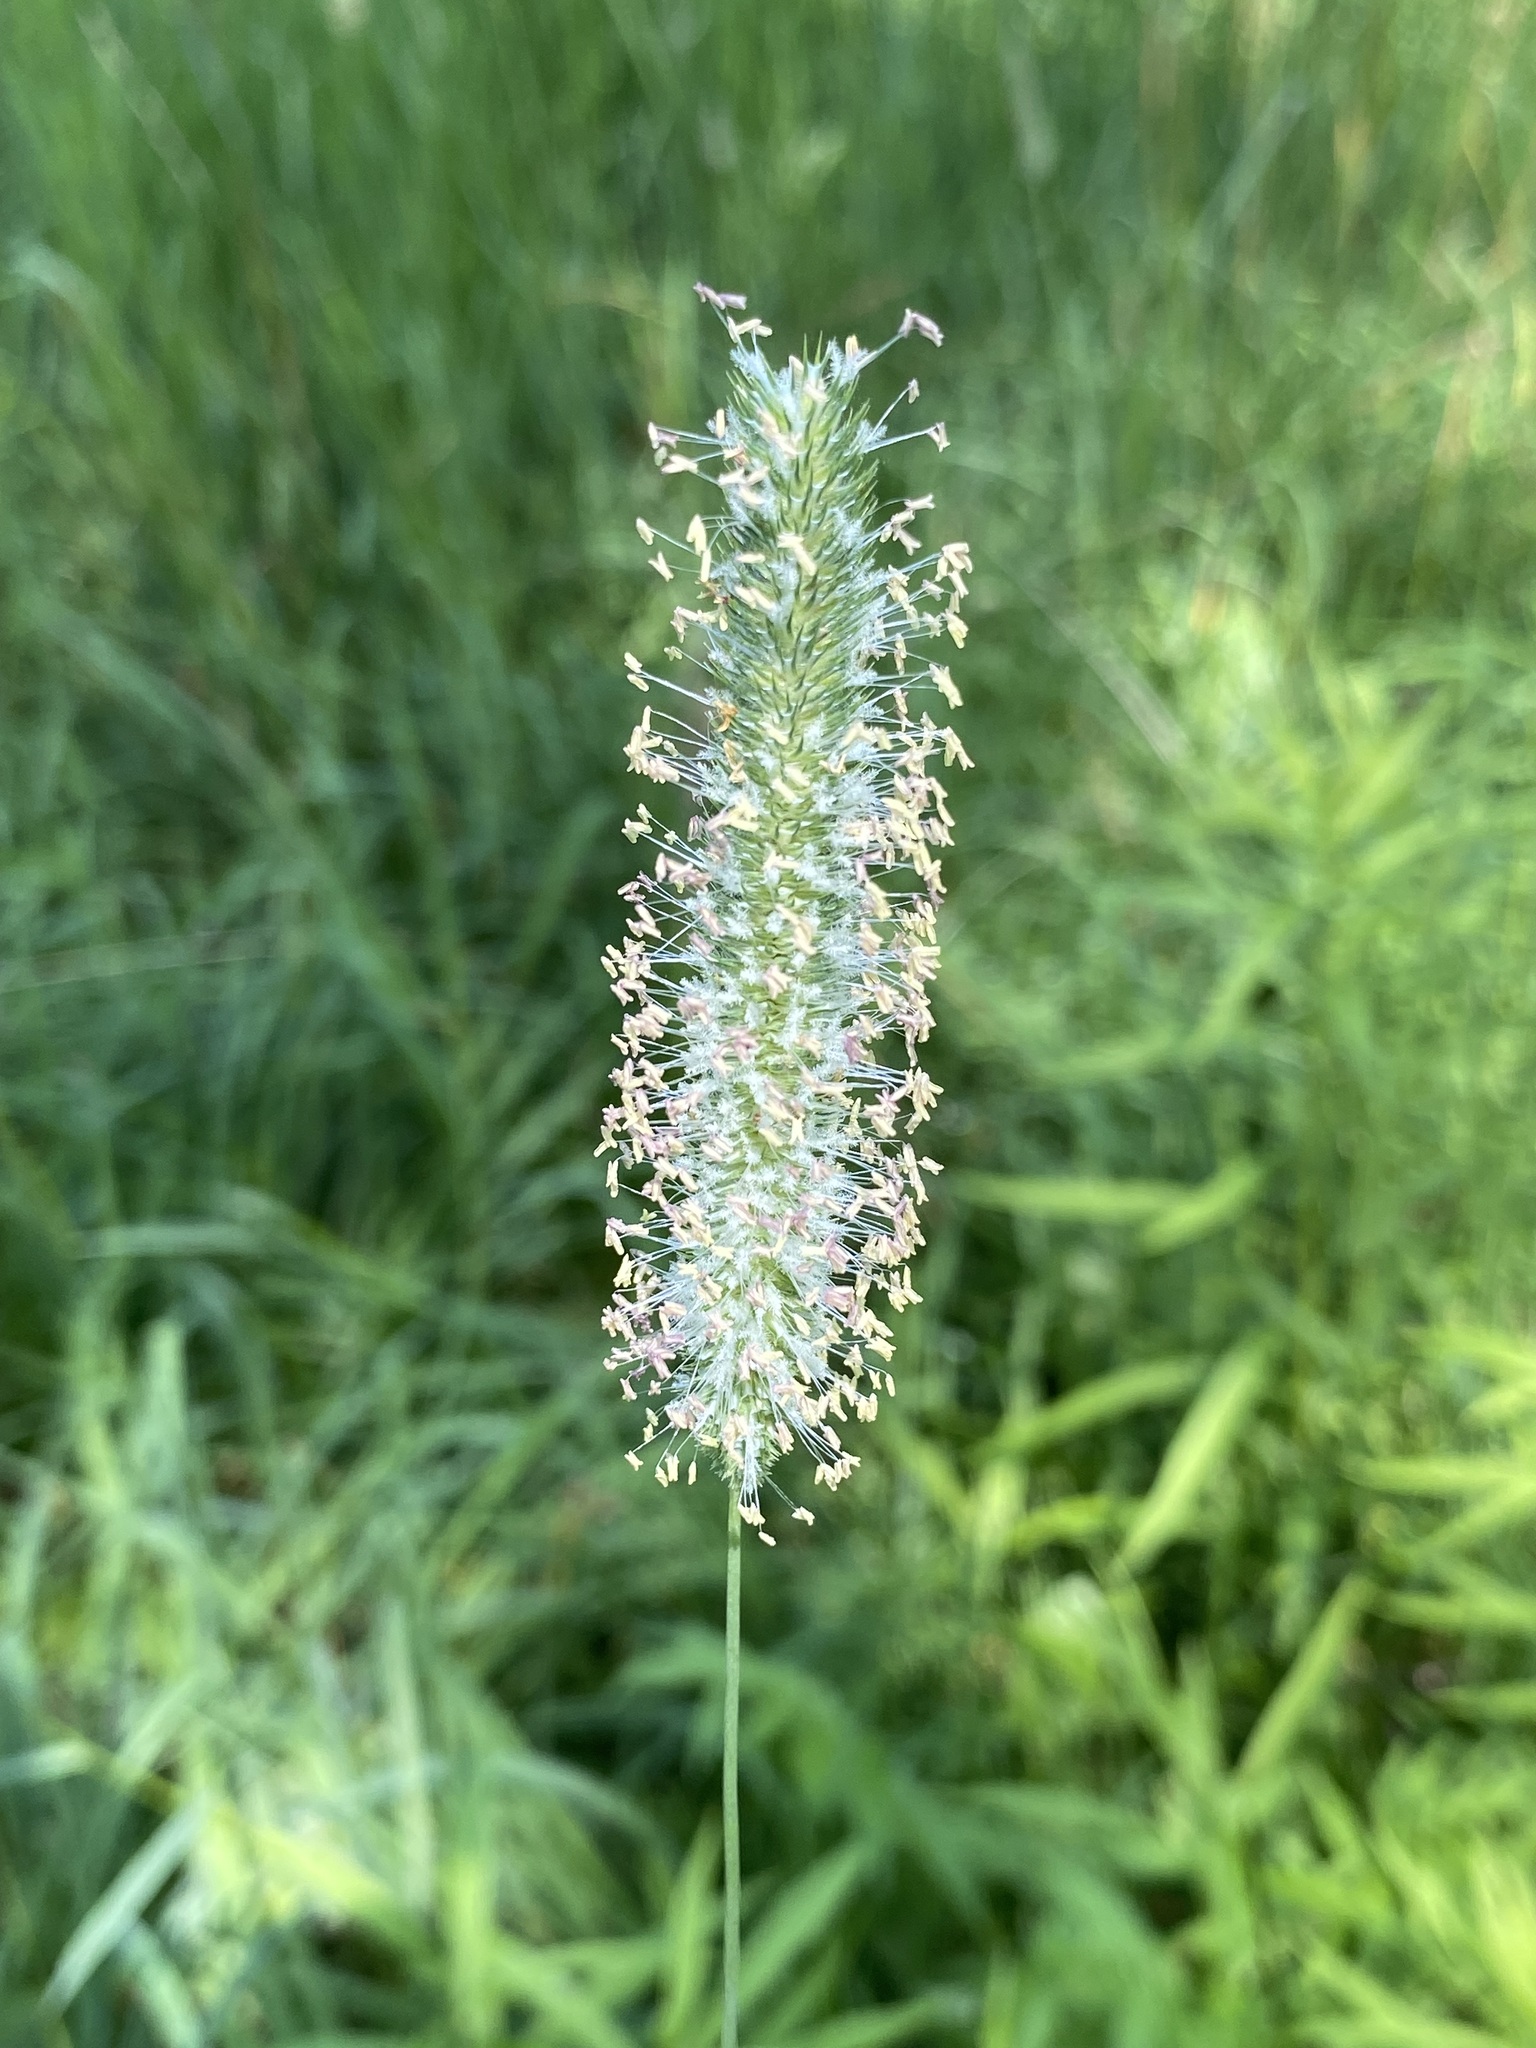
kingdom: Plantae
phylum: Tracheophyta
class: Liliopsida
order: Poales
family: Poaceae
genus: Phleum
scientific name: Phleum pratense
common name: Timothy grass
